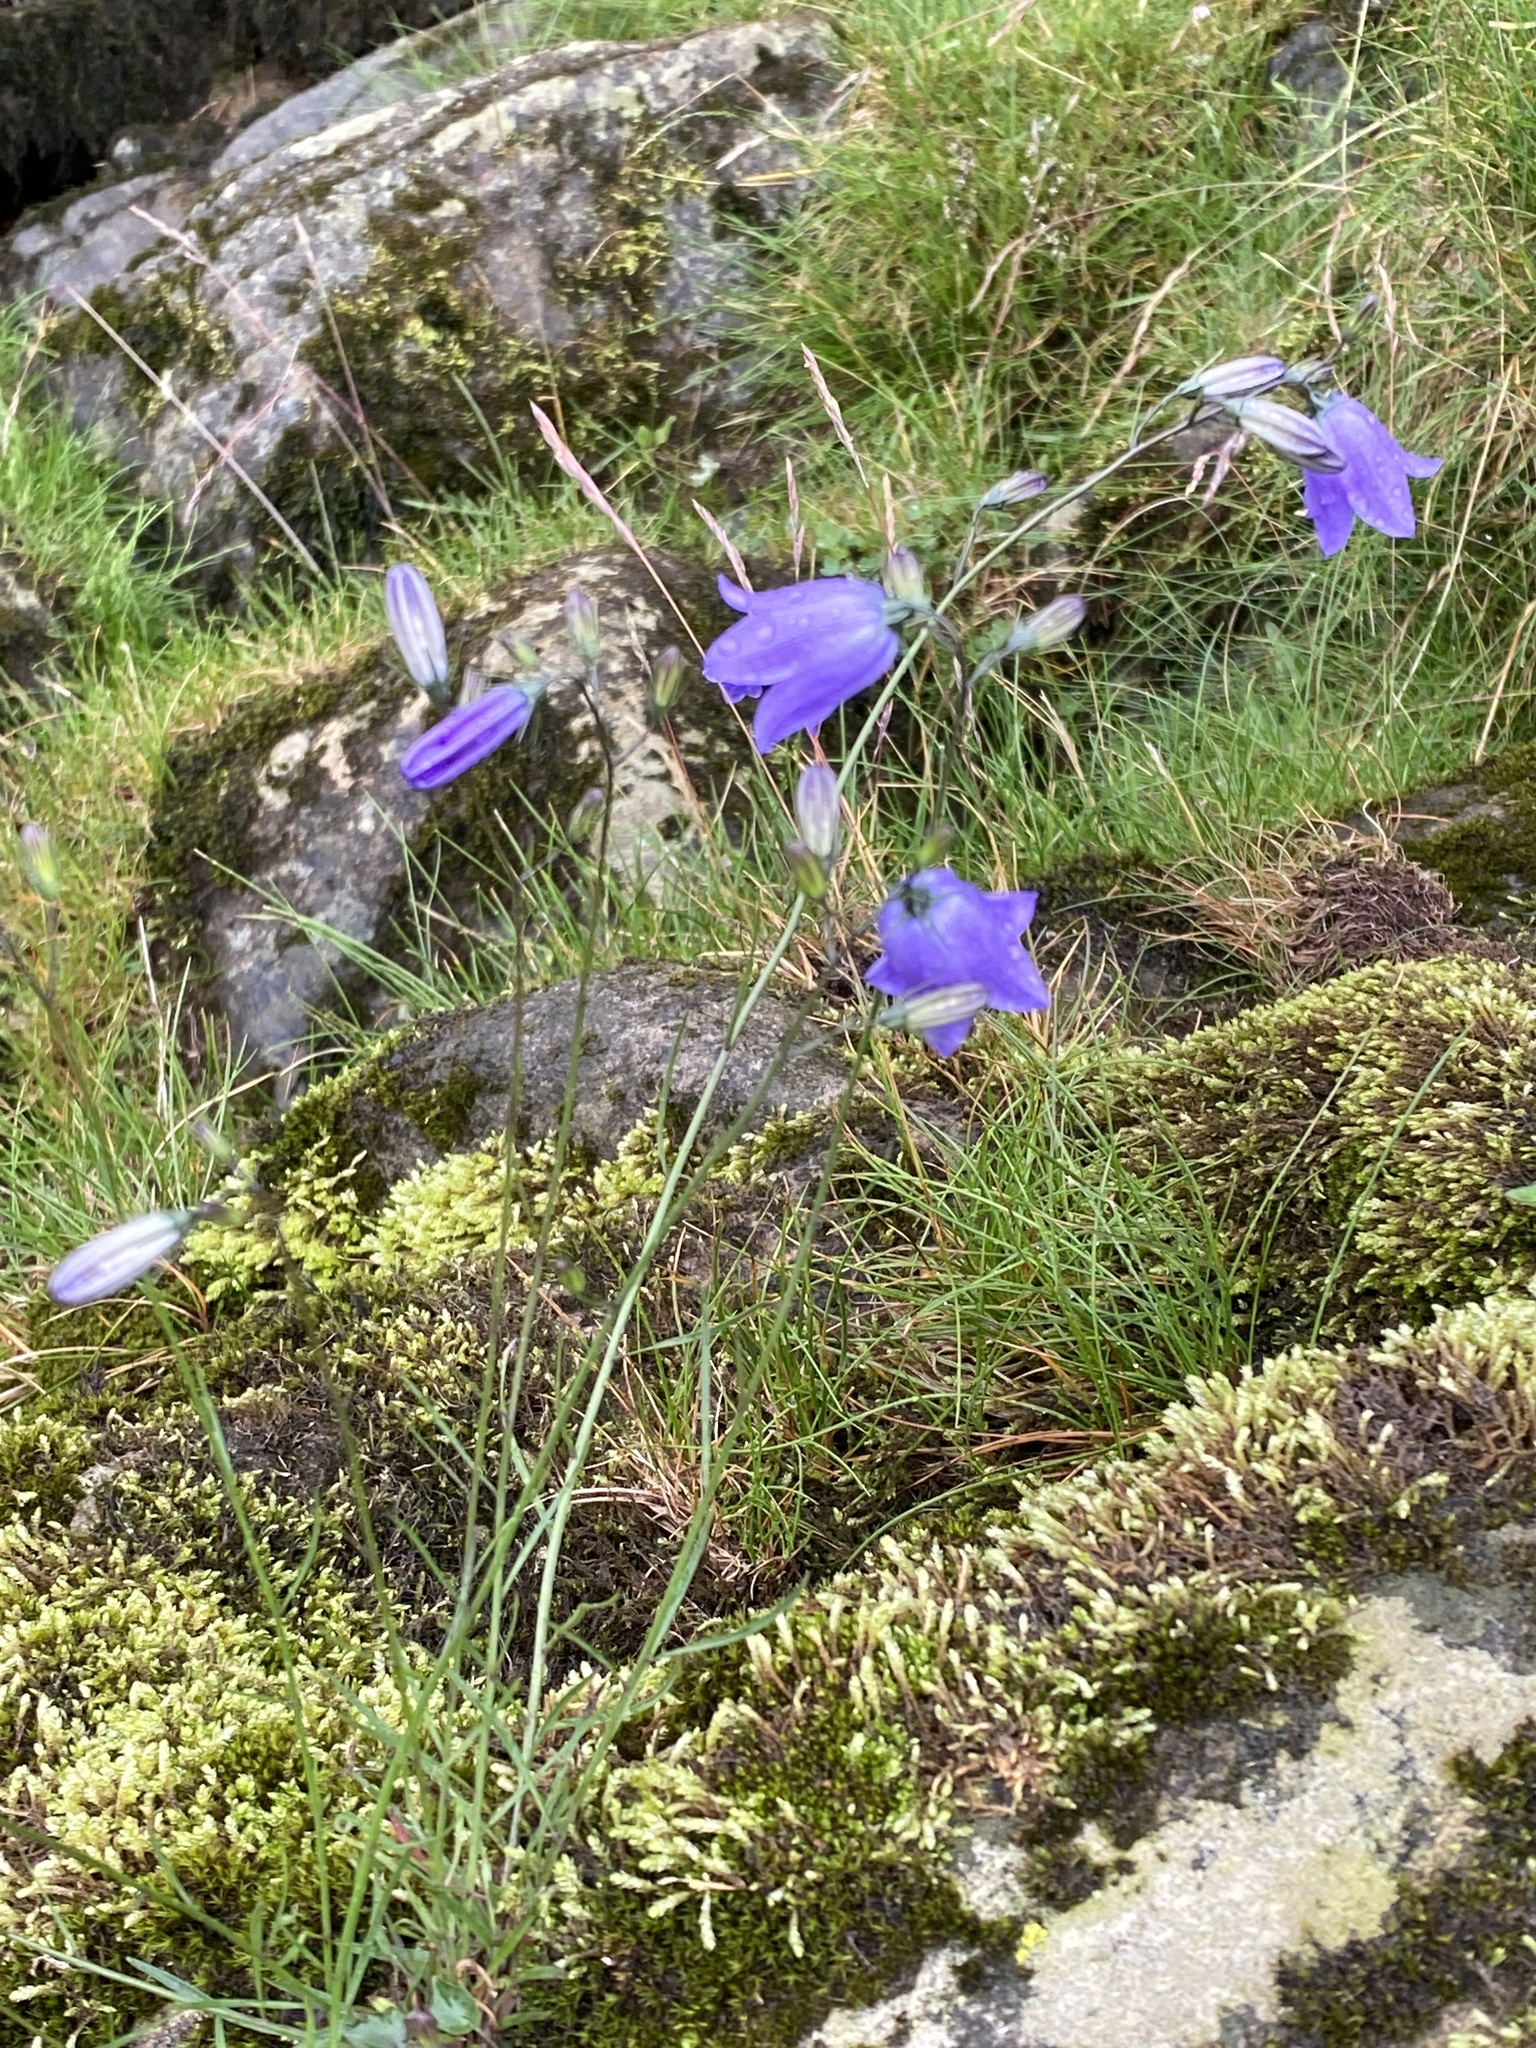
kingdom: Plantae
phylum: Tracheophyta
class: Magnoliopsida
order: Asterales
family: Campanulaceae
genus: Campanula
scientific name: Campanula rotundifolia
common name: Harebell
